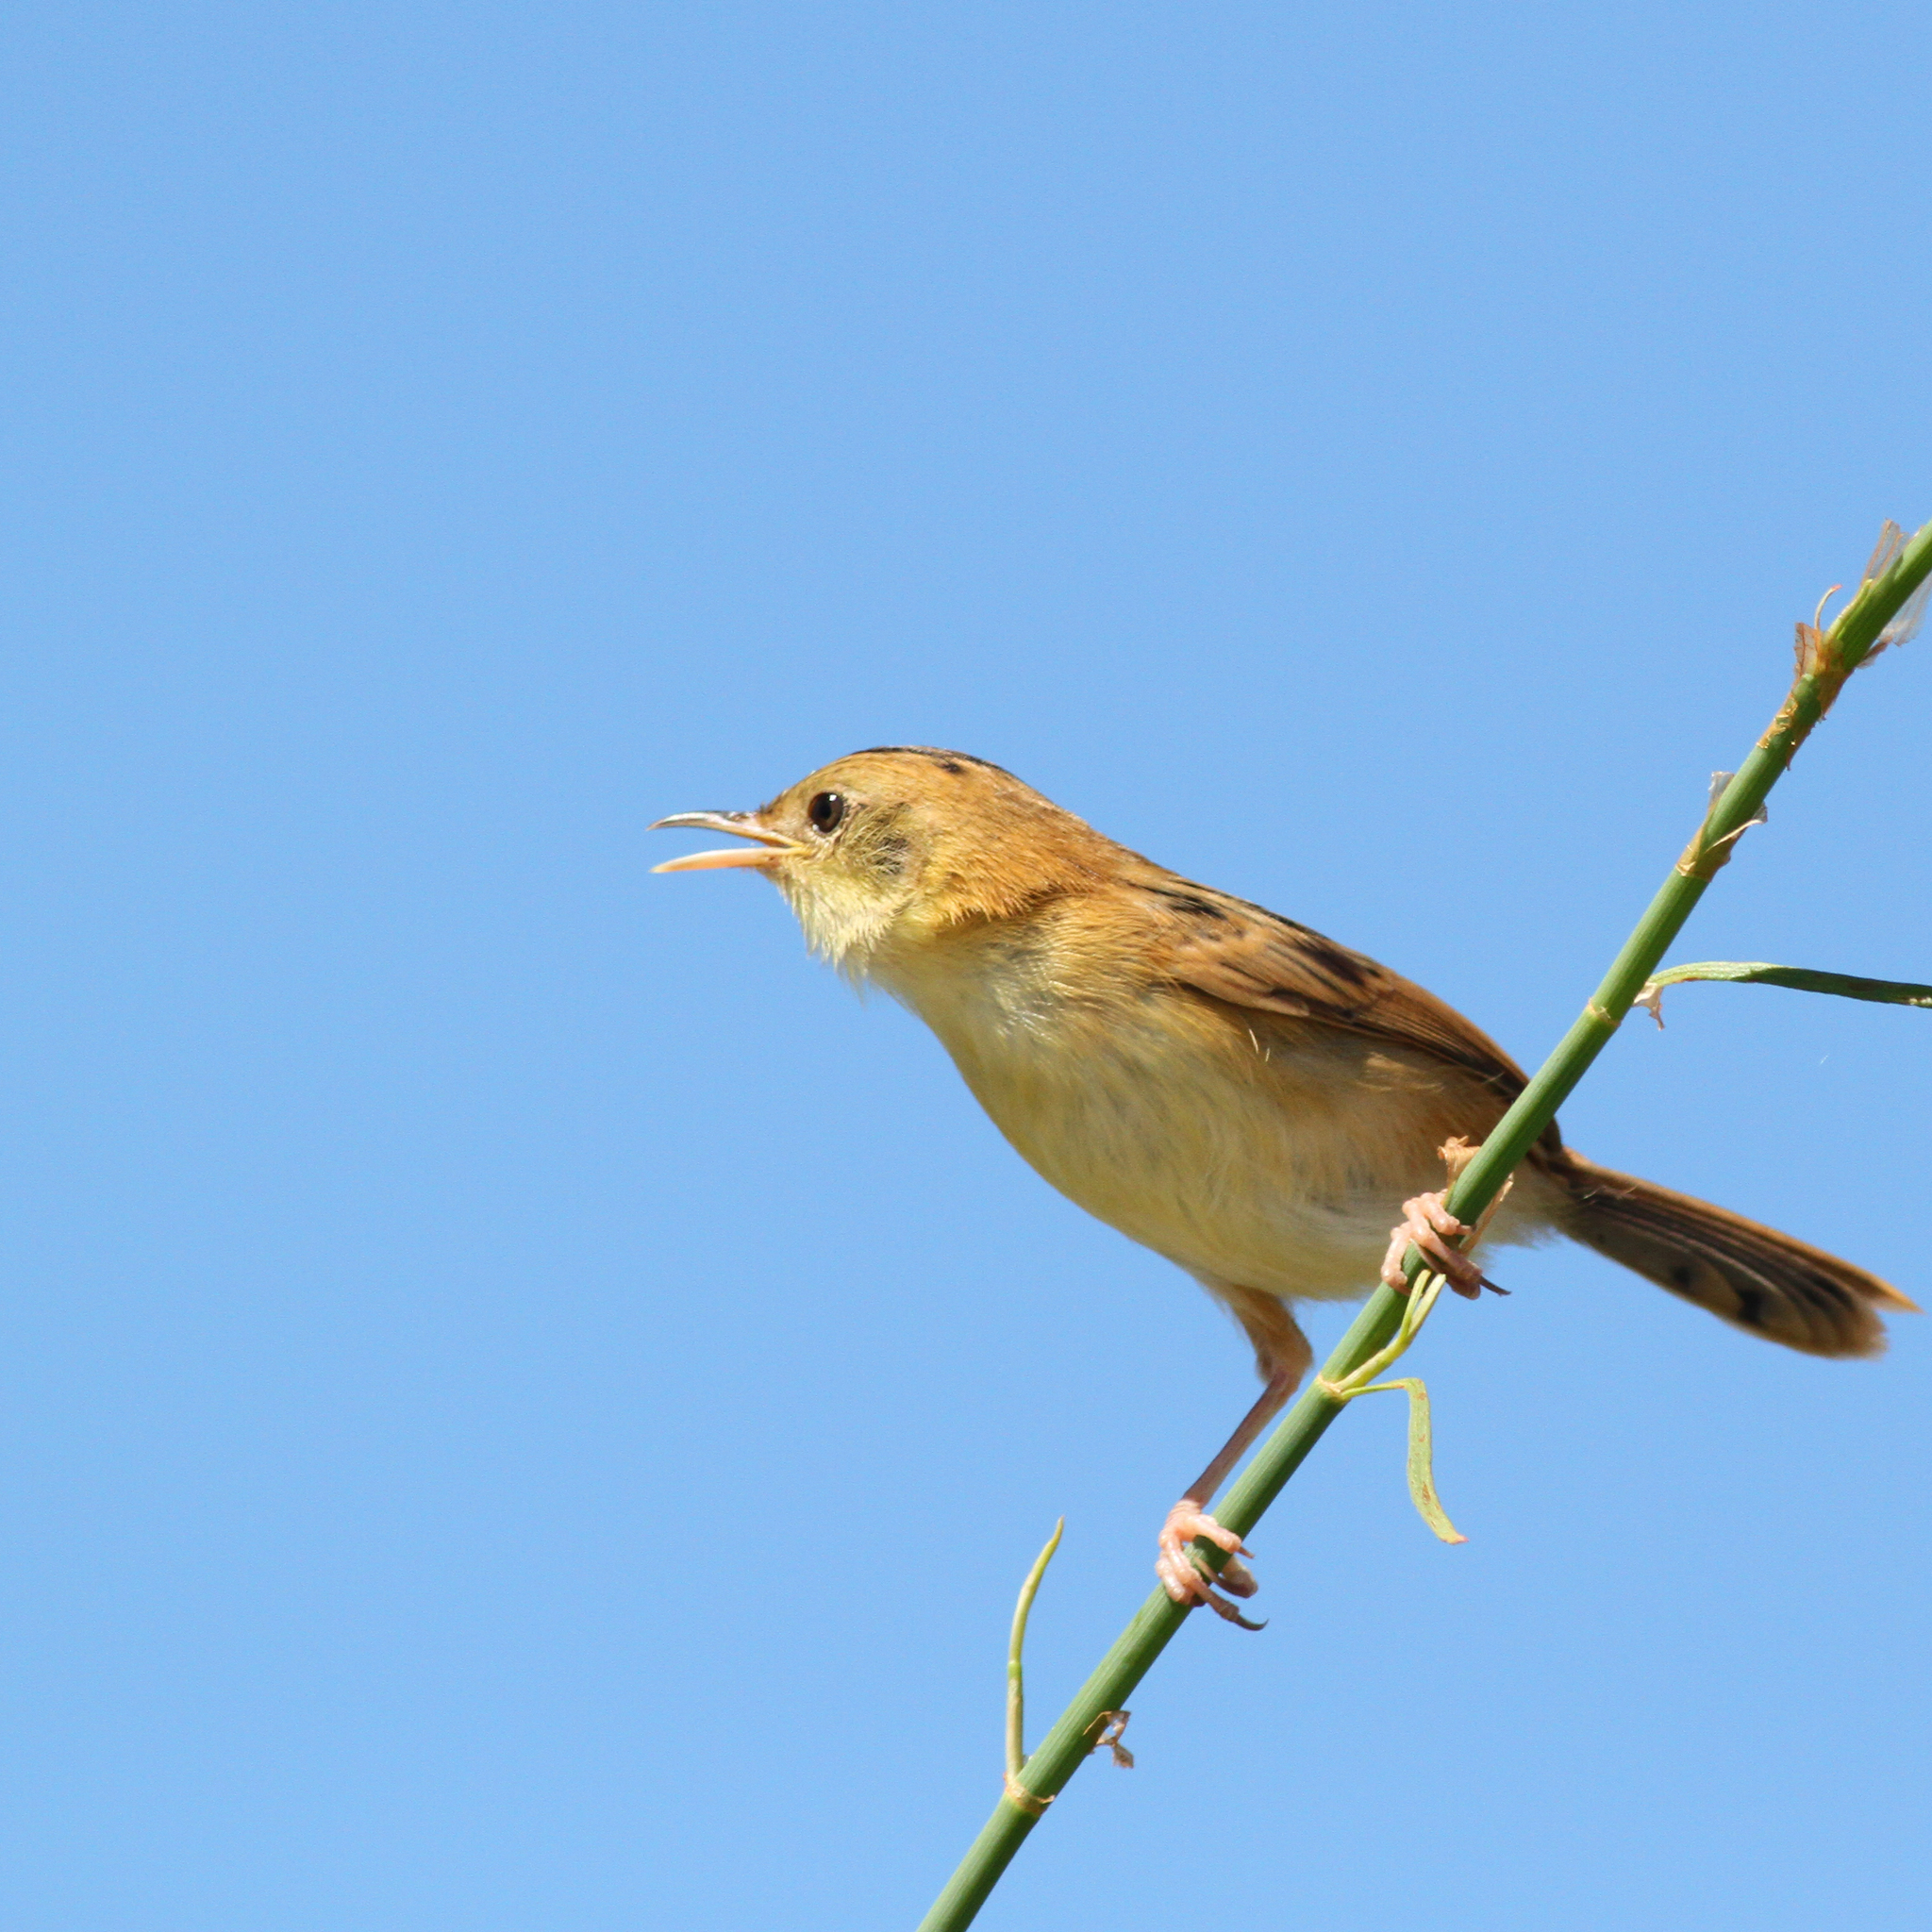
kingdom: Animalia
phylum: Chordata
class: Aves
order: Passeriformes
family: Cisticolidae
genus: Cisticola
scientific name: Cisticola exilis
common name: Golden-headed cisticola
